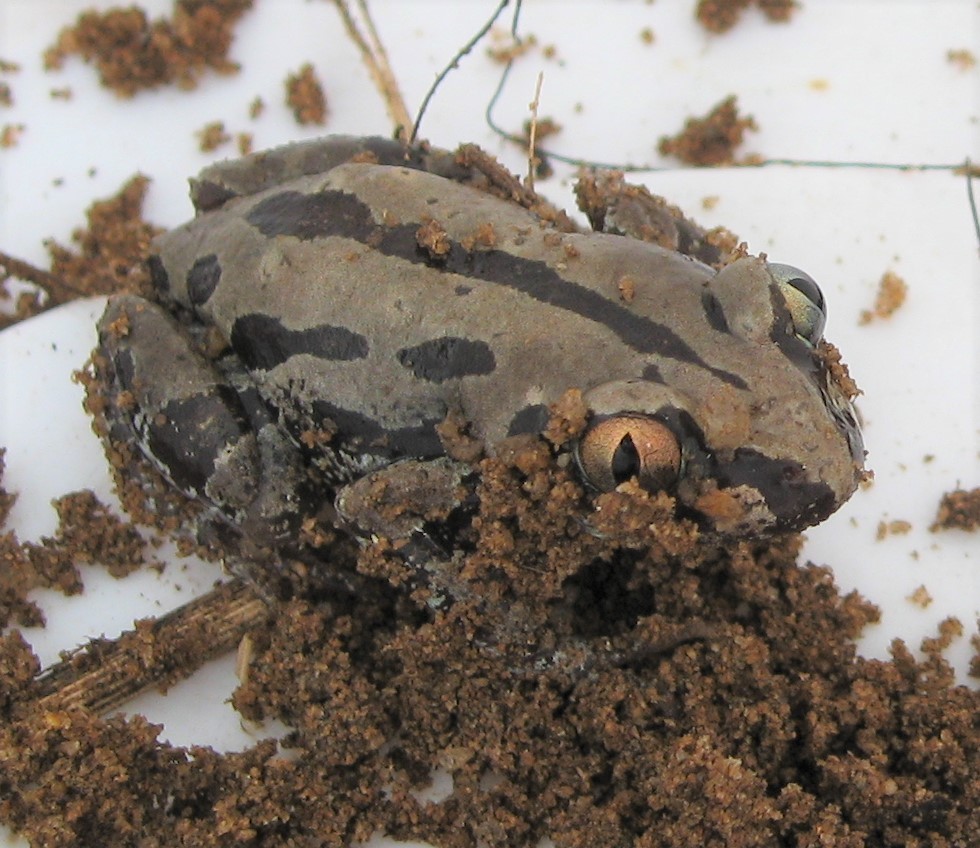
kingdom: Animalia
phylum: Chordata
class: Amphibia
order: Anura
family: Hyperoliidae
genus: Kassina
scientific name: Kassina senegalensis
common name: Senegal land frog
